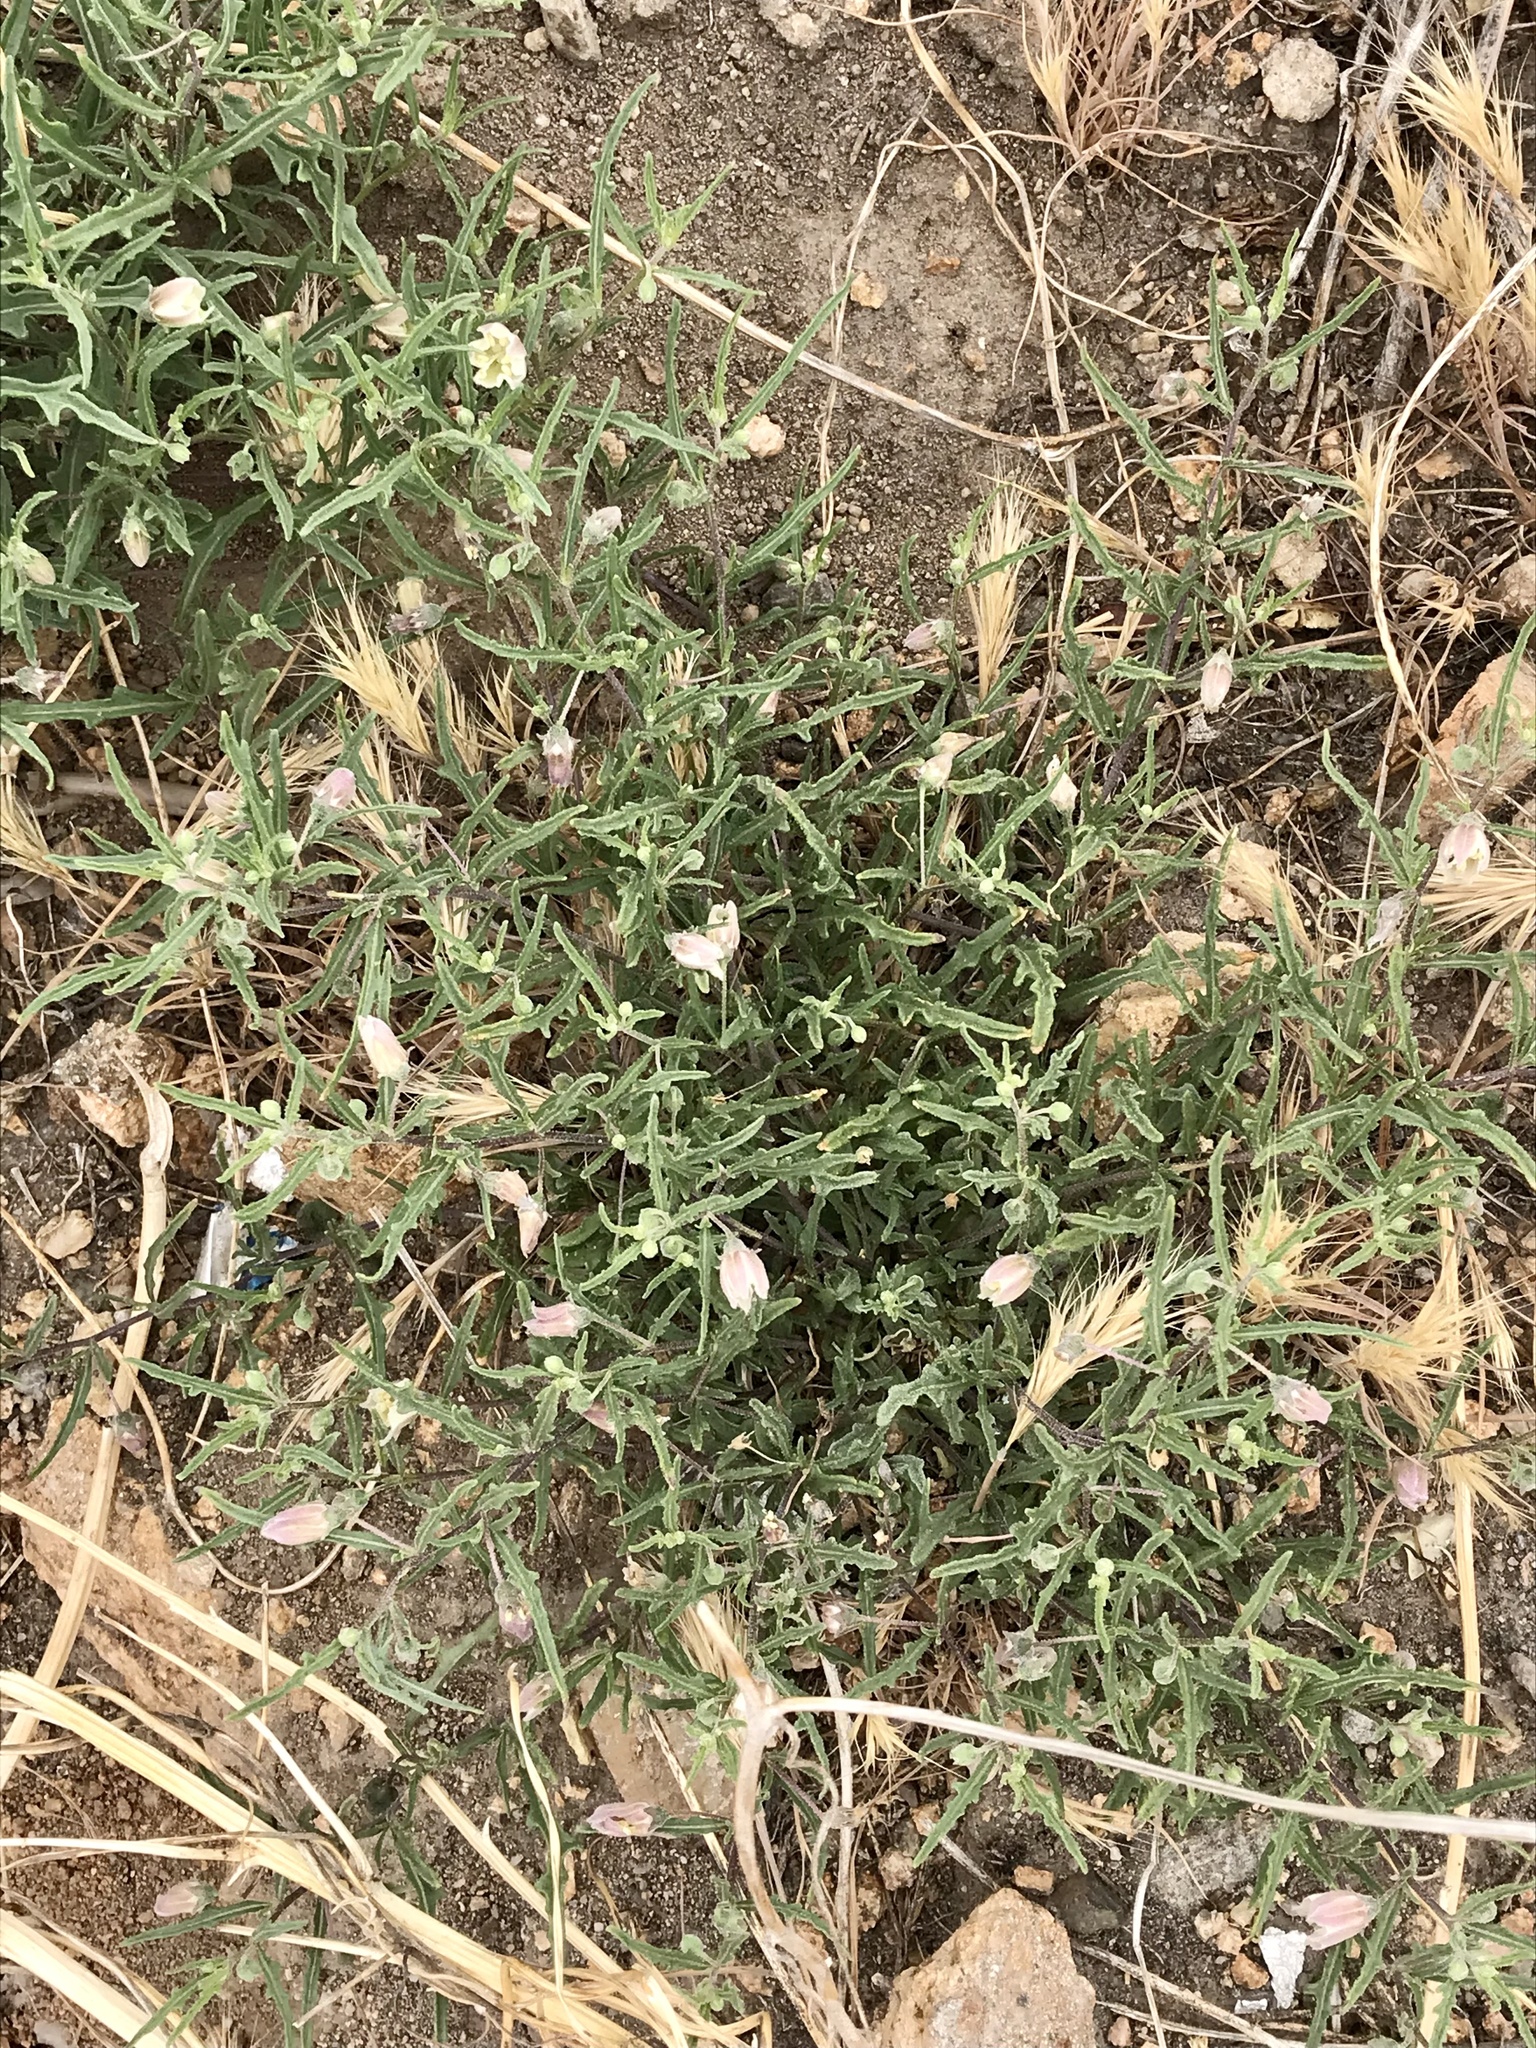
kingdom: Plantae
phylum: Tracheophyta
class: Magnoliopsida
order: Solanales
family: Solanaceae
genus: Chamaesaracha
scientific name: Chamaesaracha coronopus
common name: Smooth chamaesaracha
